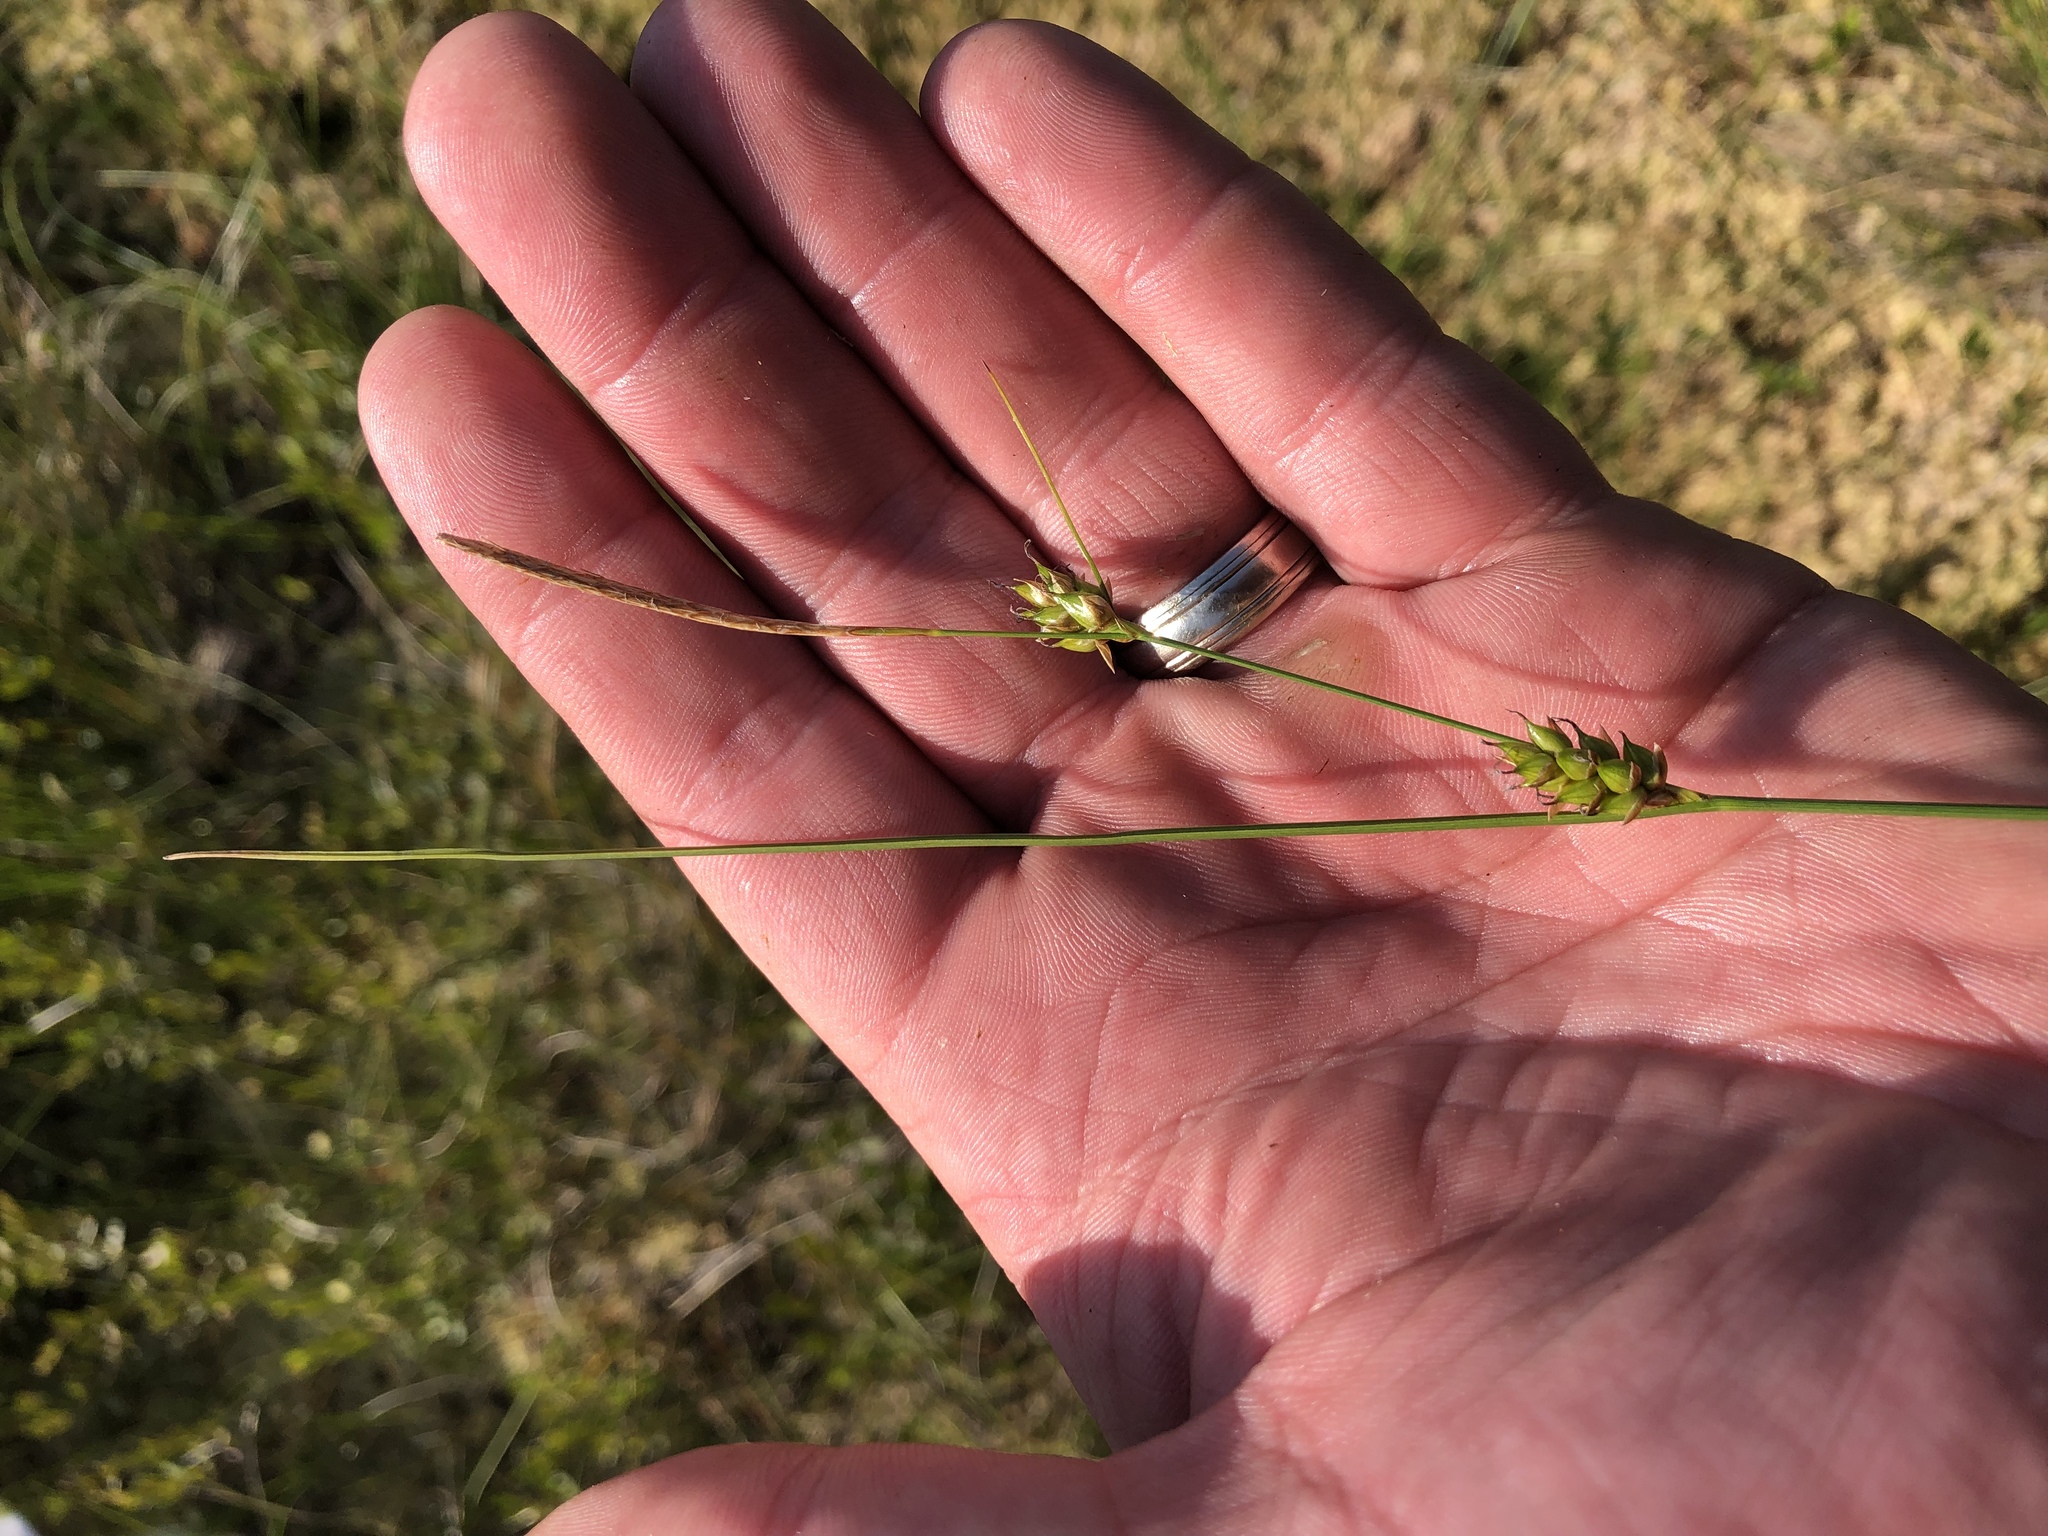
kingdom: Plantae
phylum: Tracheophyta
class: Liliopsida
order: Poales
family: Cyperaceae
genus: Carex
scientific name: Carex oligosperma
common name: Few-seed sedge
